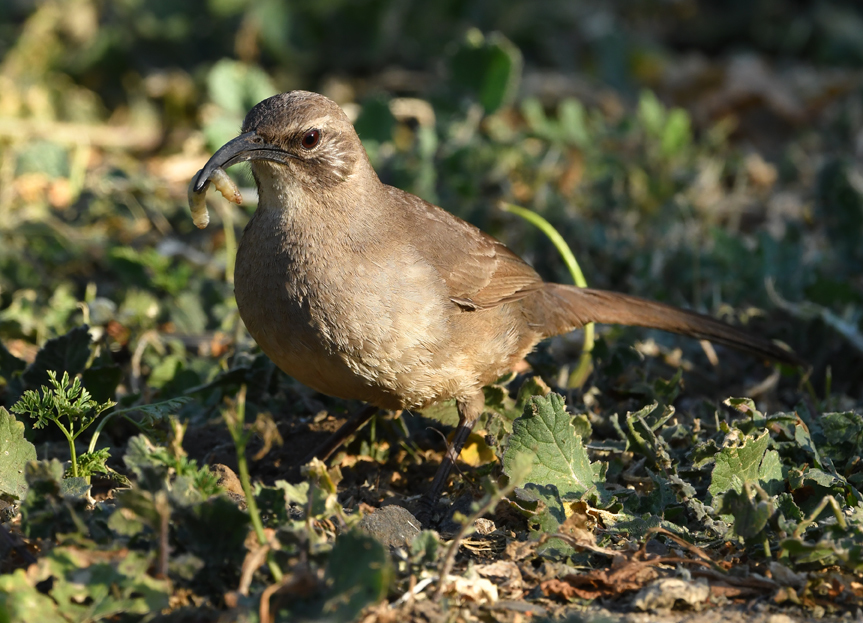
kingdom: Animalia
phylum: Chordata
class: Aves
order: Passeriformes
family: Mimidae
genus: Toxostoma
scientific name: Toxostoma redivivum
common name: California thrasher
